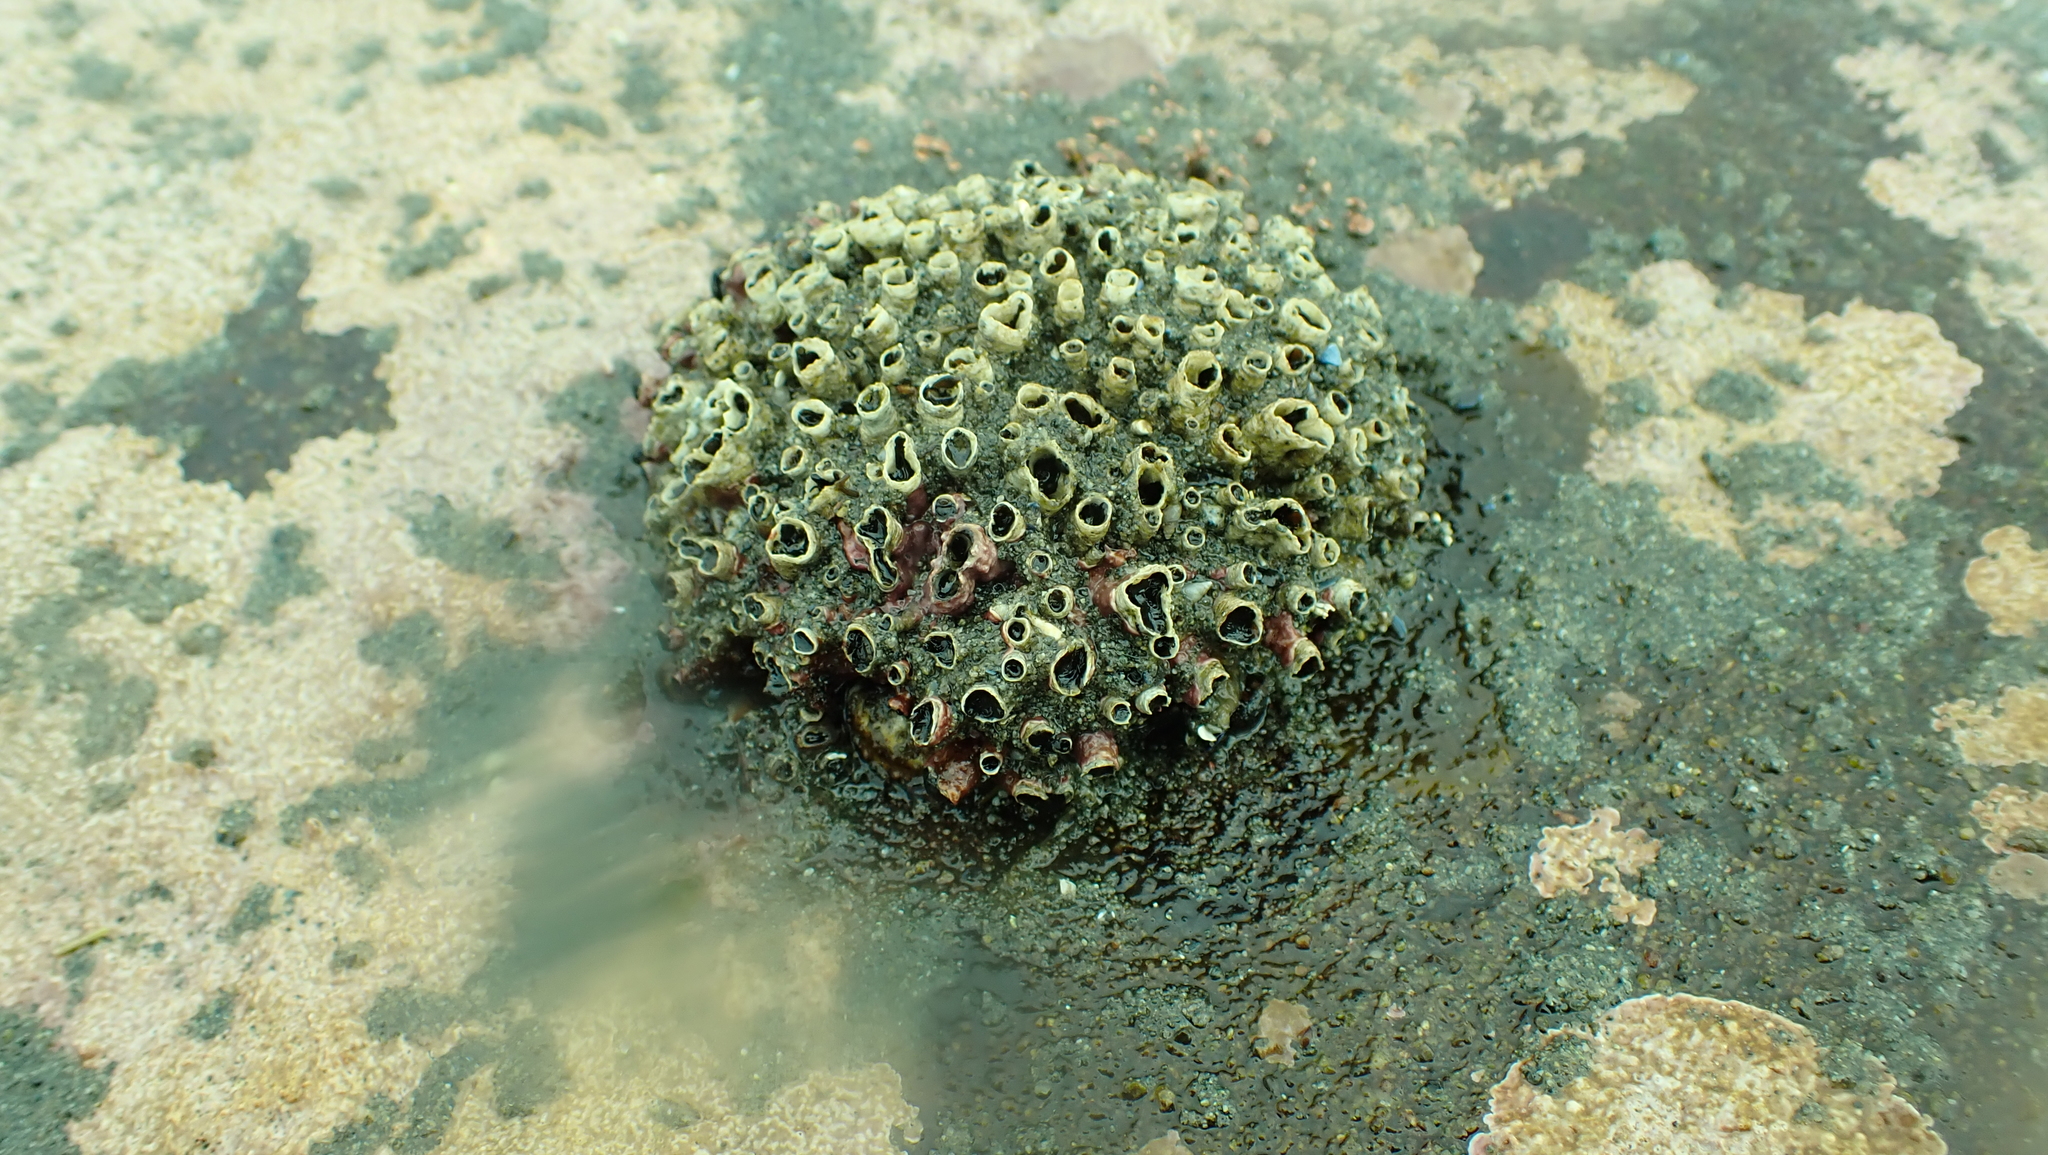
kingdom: Animalia
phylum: Annelida
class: Polychaeta
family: Cirratulidae
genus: Dodecaceria
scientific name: Dodecaceria pacifica
